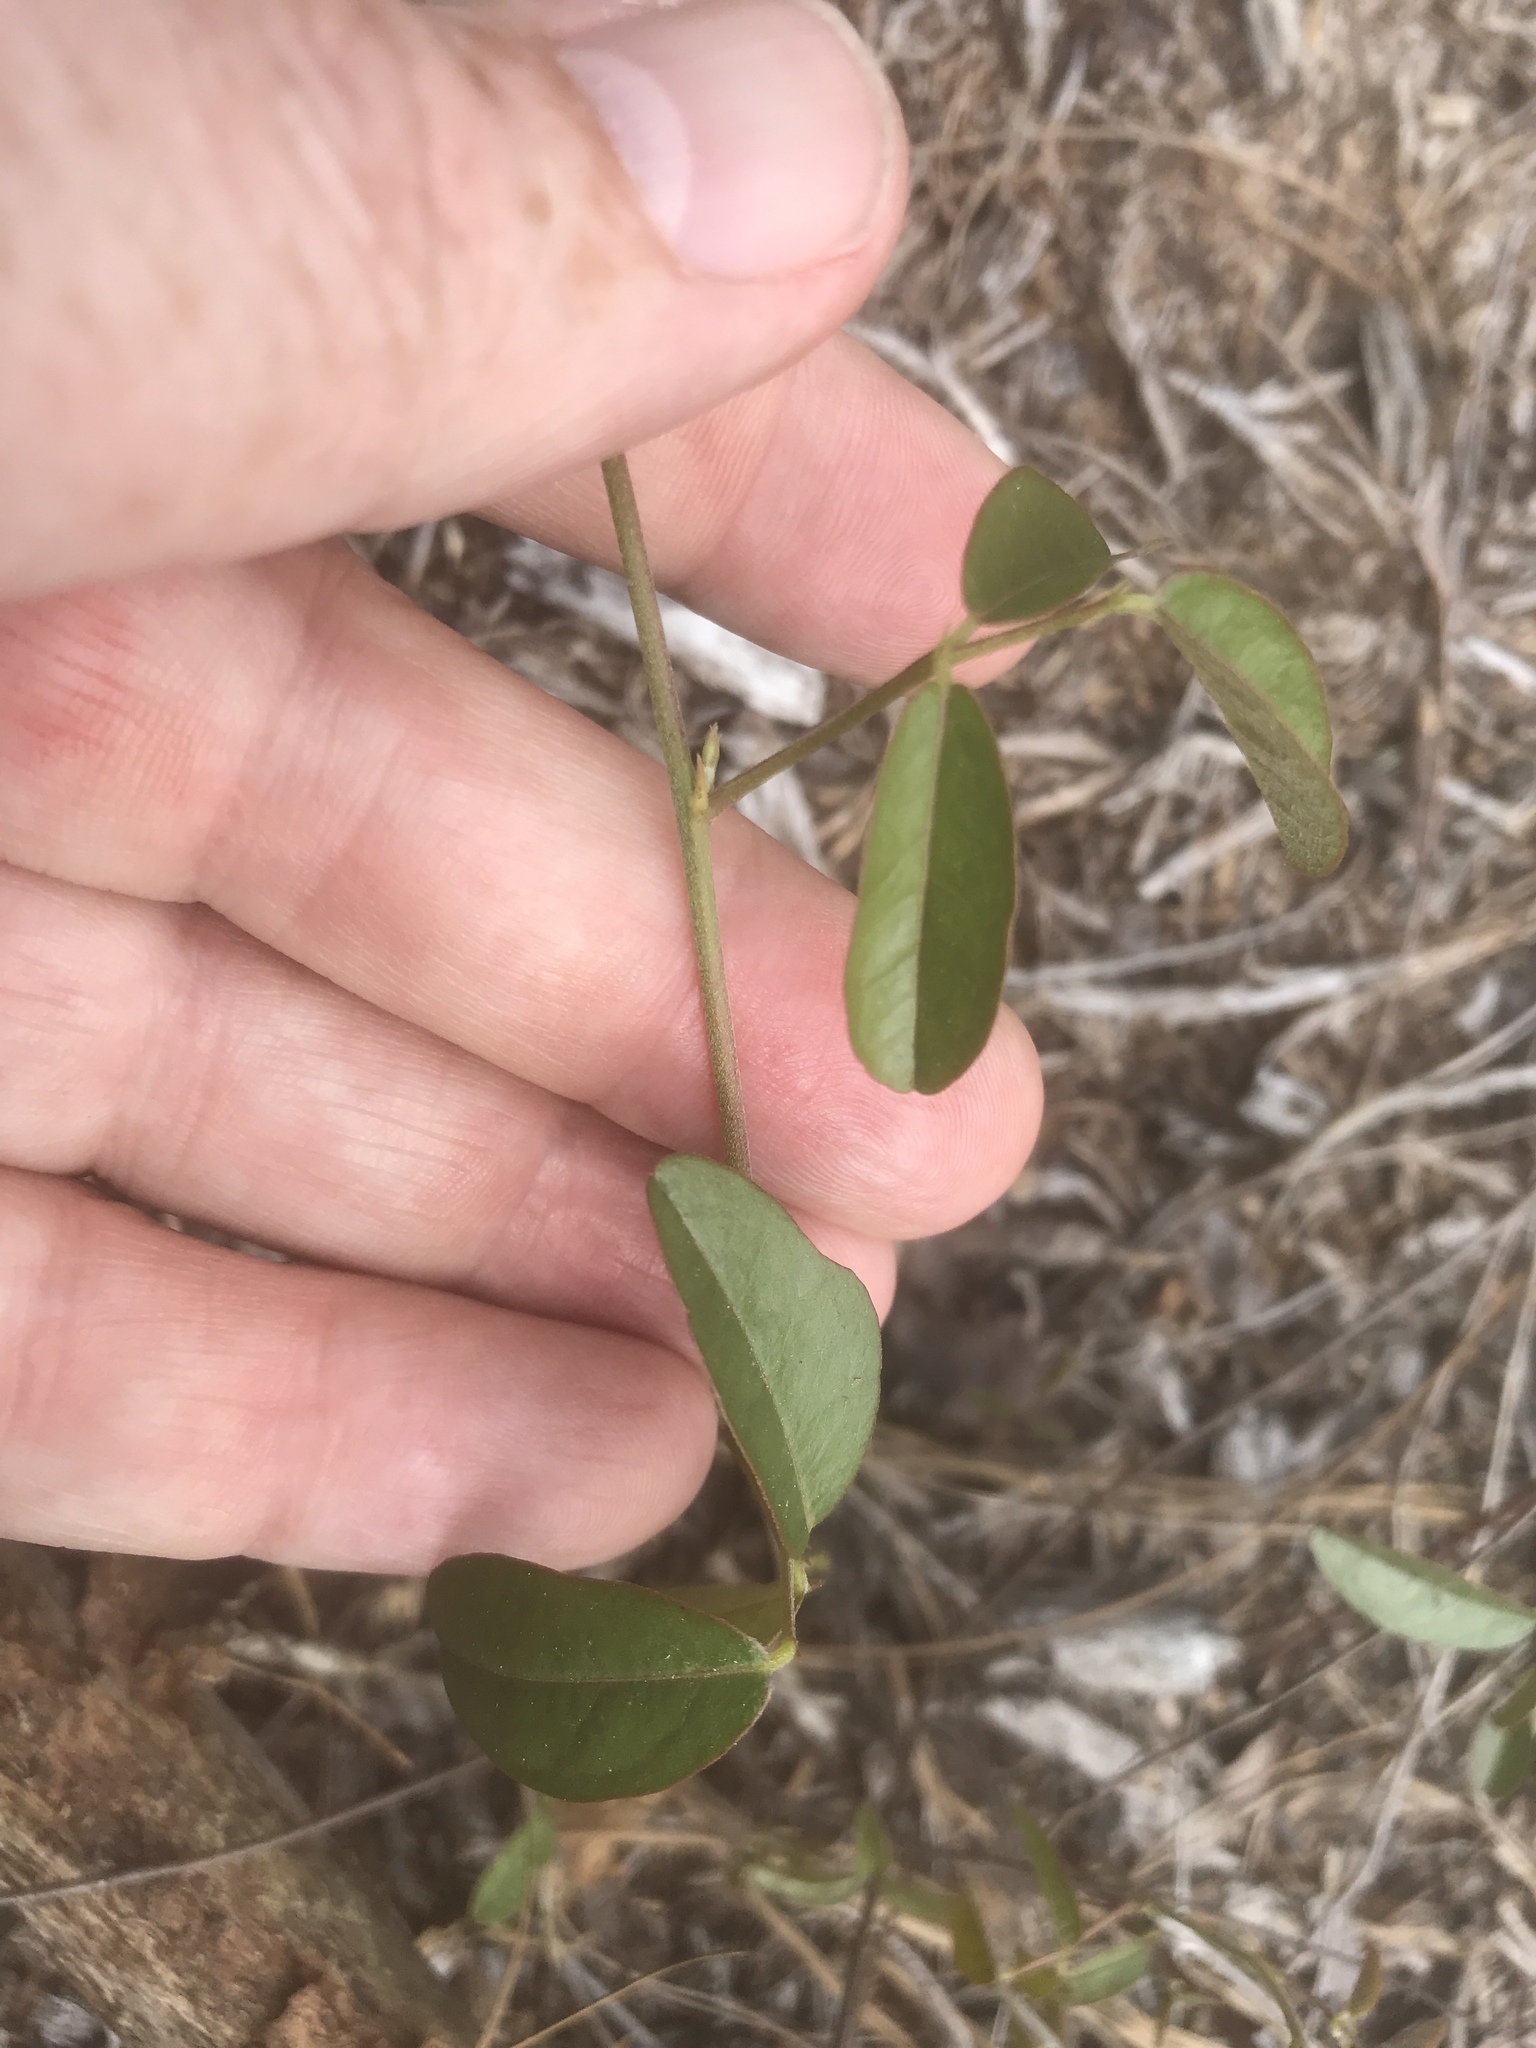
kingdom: Plantae
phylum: Tracheophyta
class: Magnoliopsida
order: Fabales
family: Fabaceae
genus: Galactia
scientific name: Galactia regularis
